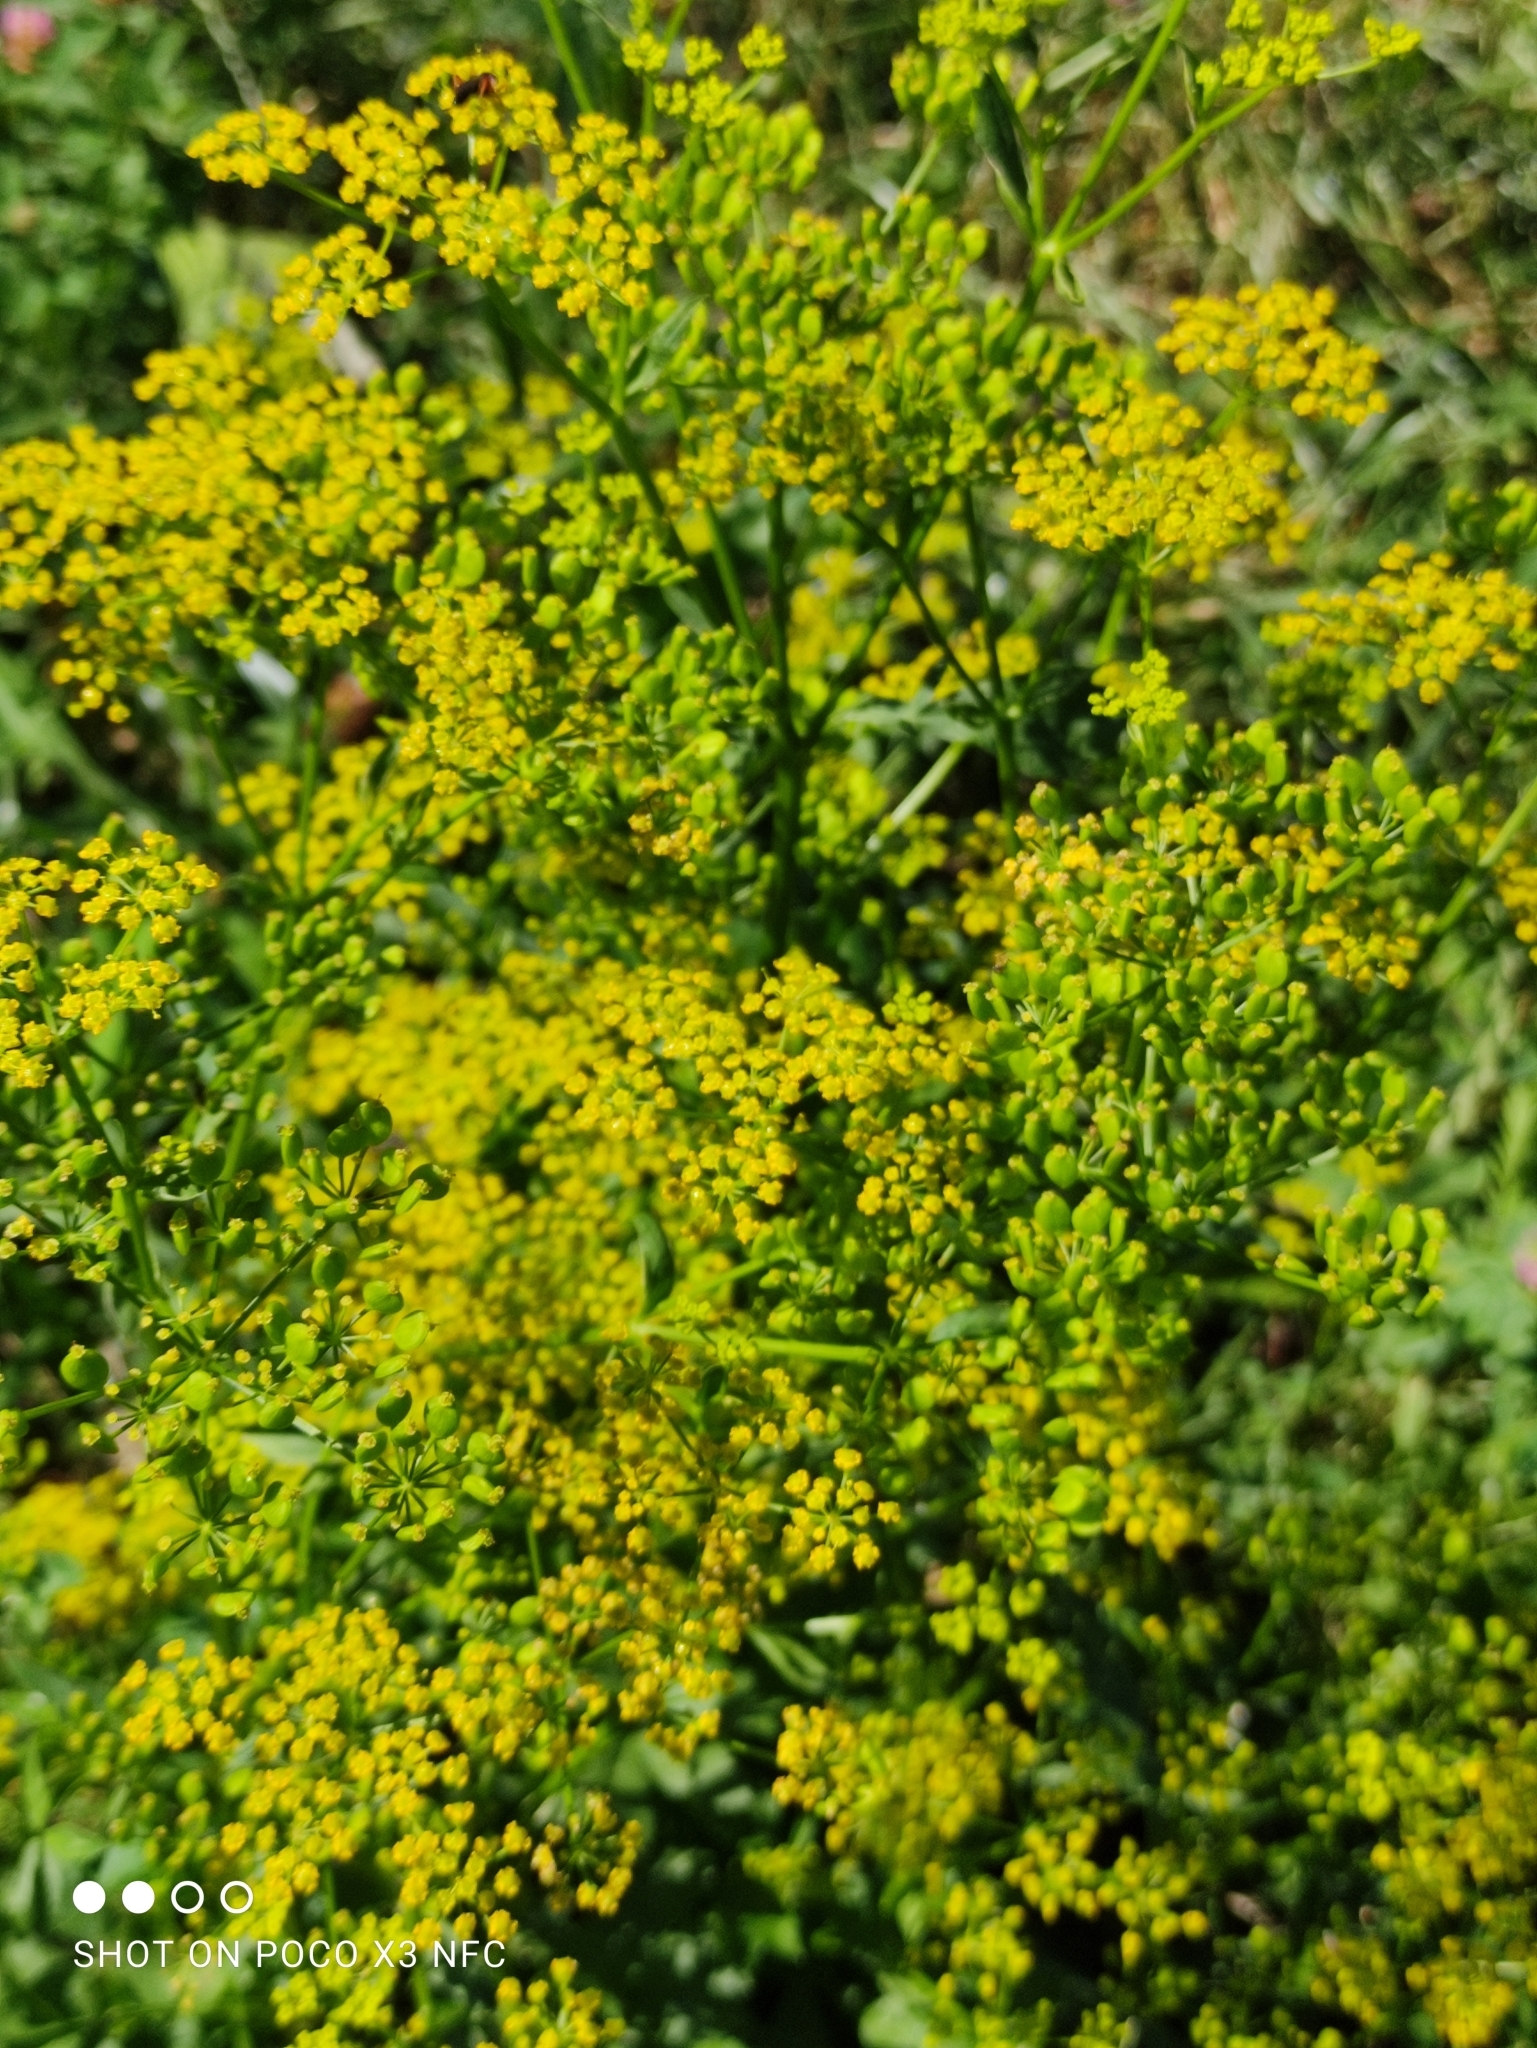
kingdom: Plantae
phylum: Tracheophyta
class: Magnoliopsida
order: Apiales
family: Apiaceae
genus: Pastinaca
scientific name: Pastinaca sativa
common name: Wild parsnip
